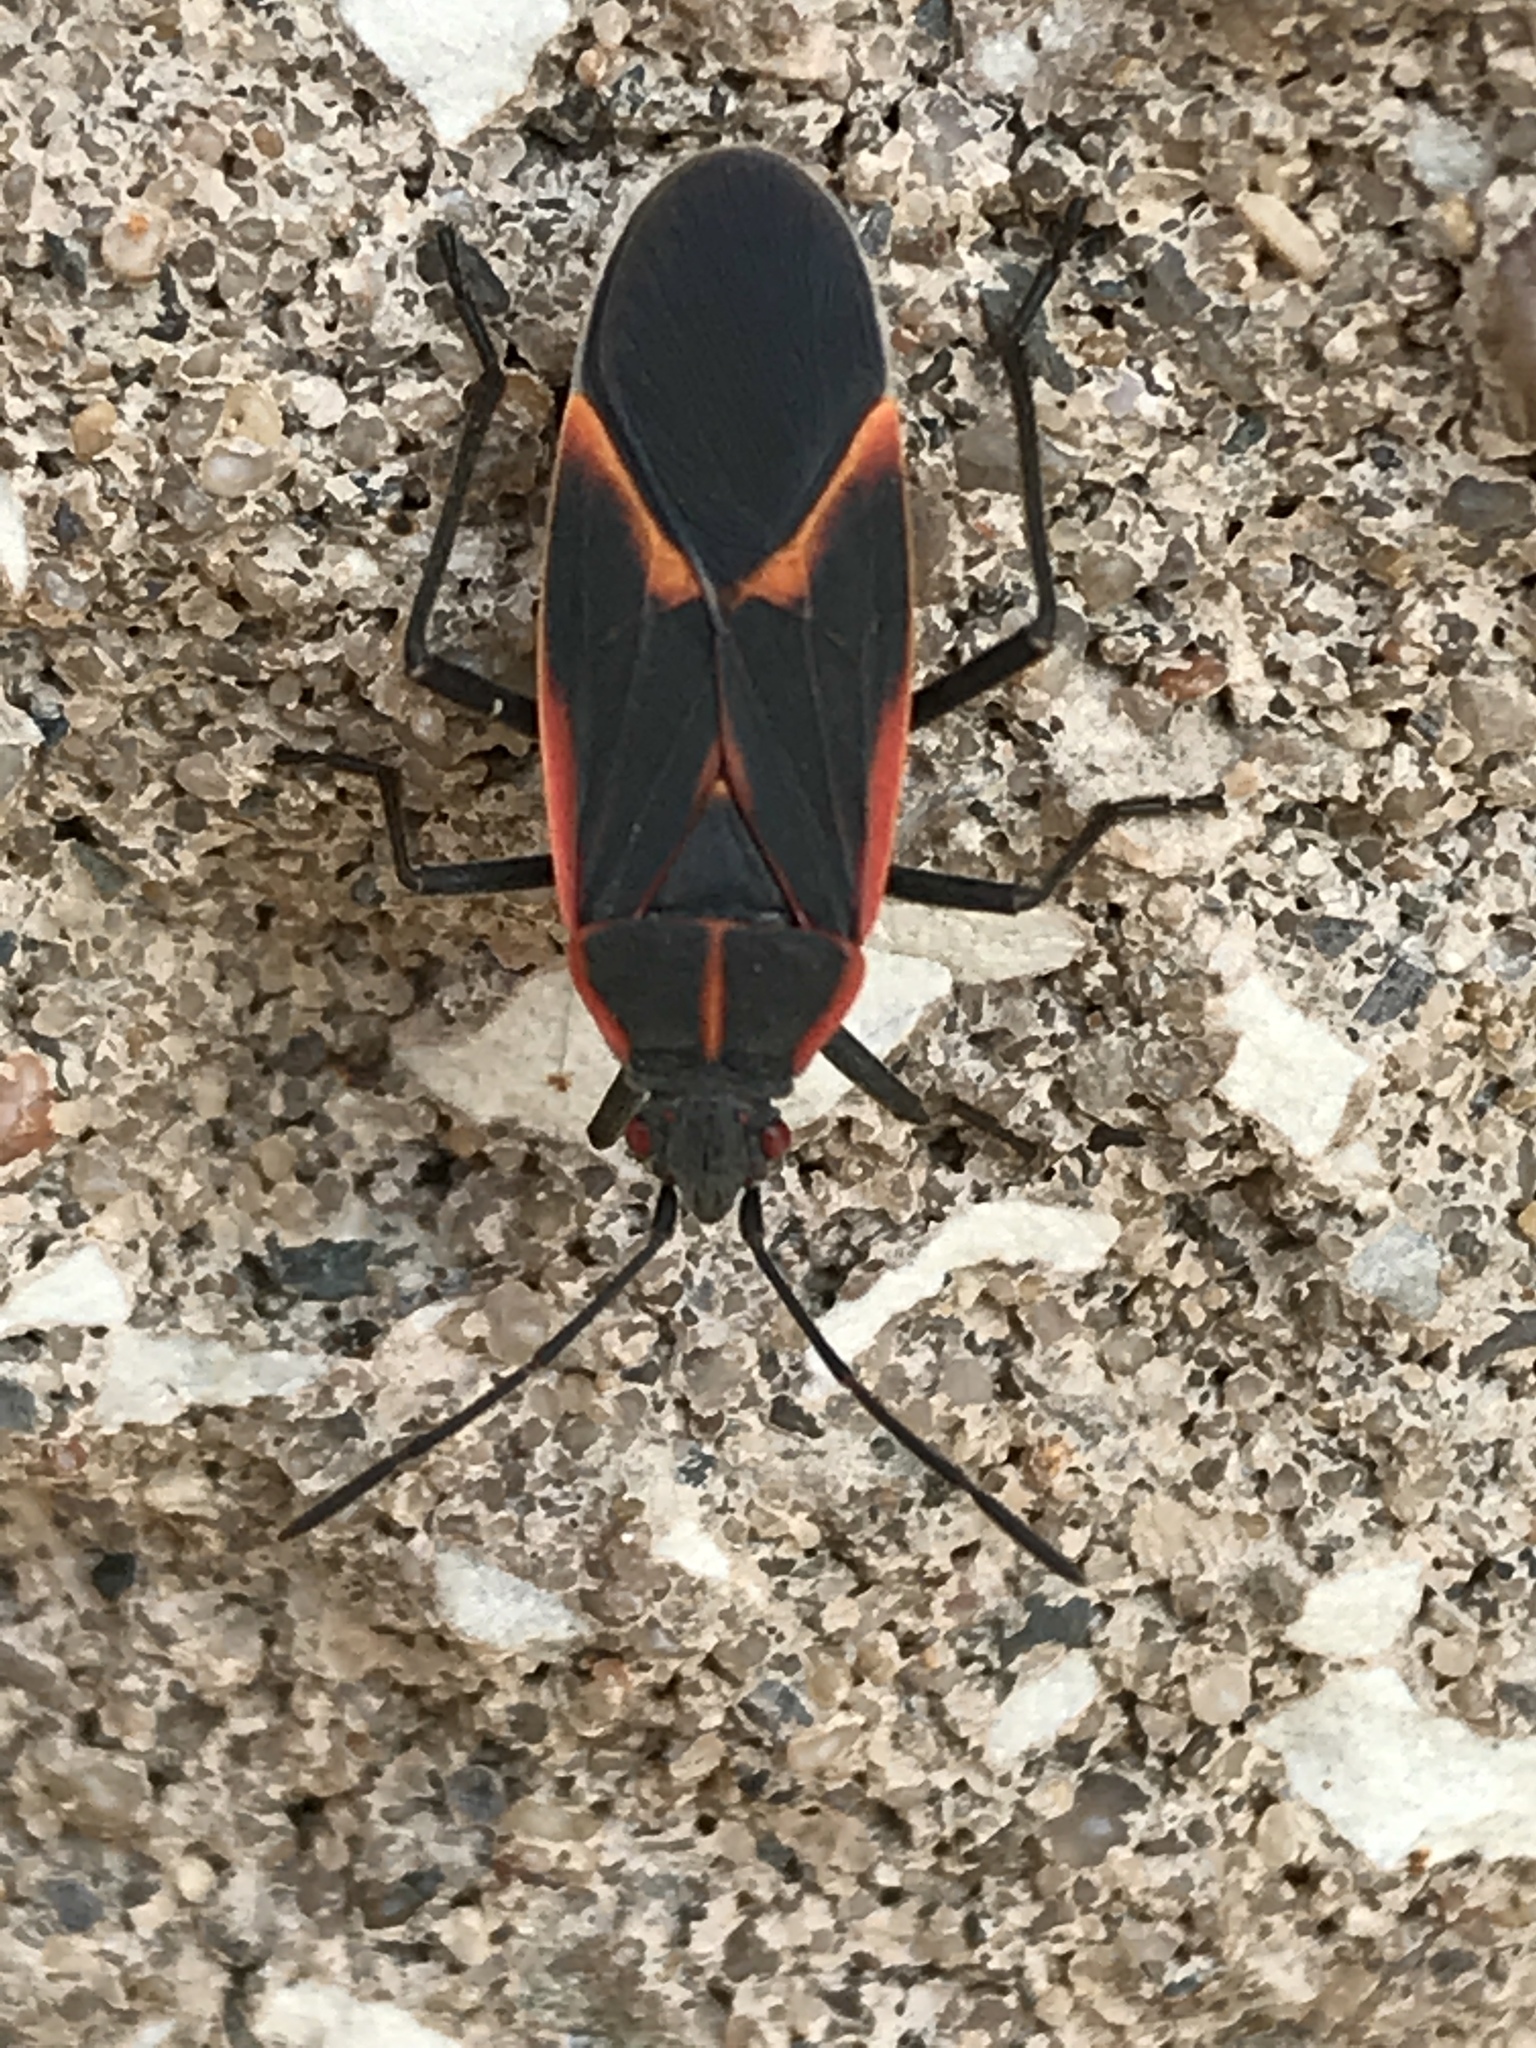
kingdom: Animalia
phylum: Arthropoda
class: Insecta
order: Hemiptera
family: Rhopalidae
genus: Boisea
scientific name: Boisea trivittata
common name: Boxelder bug
